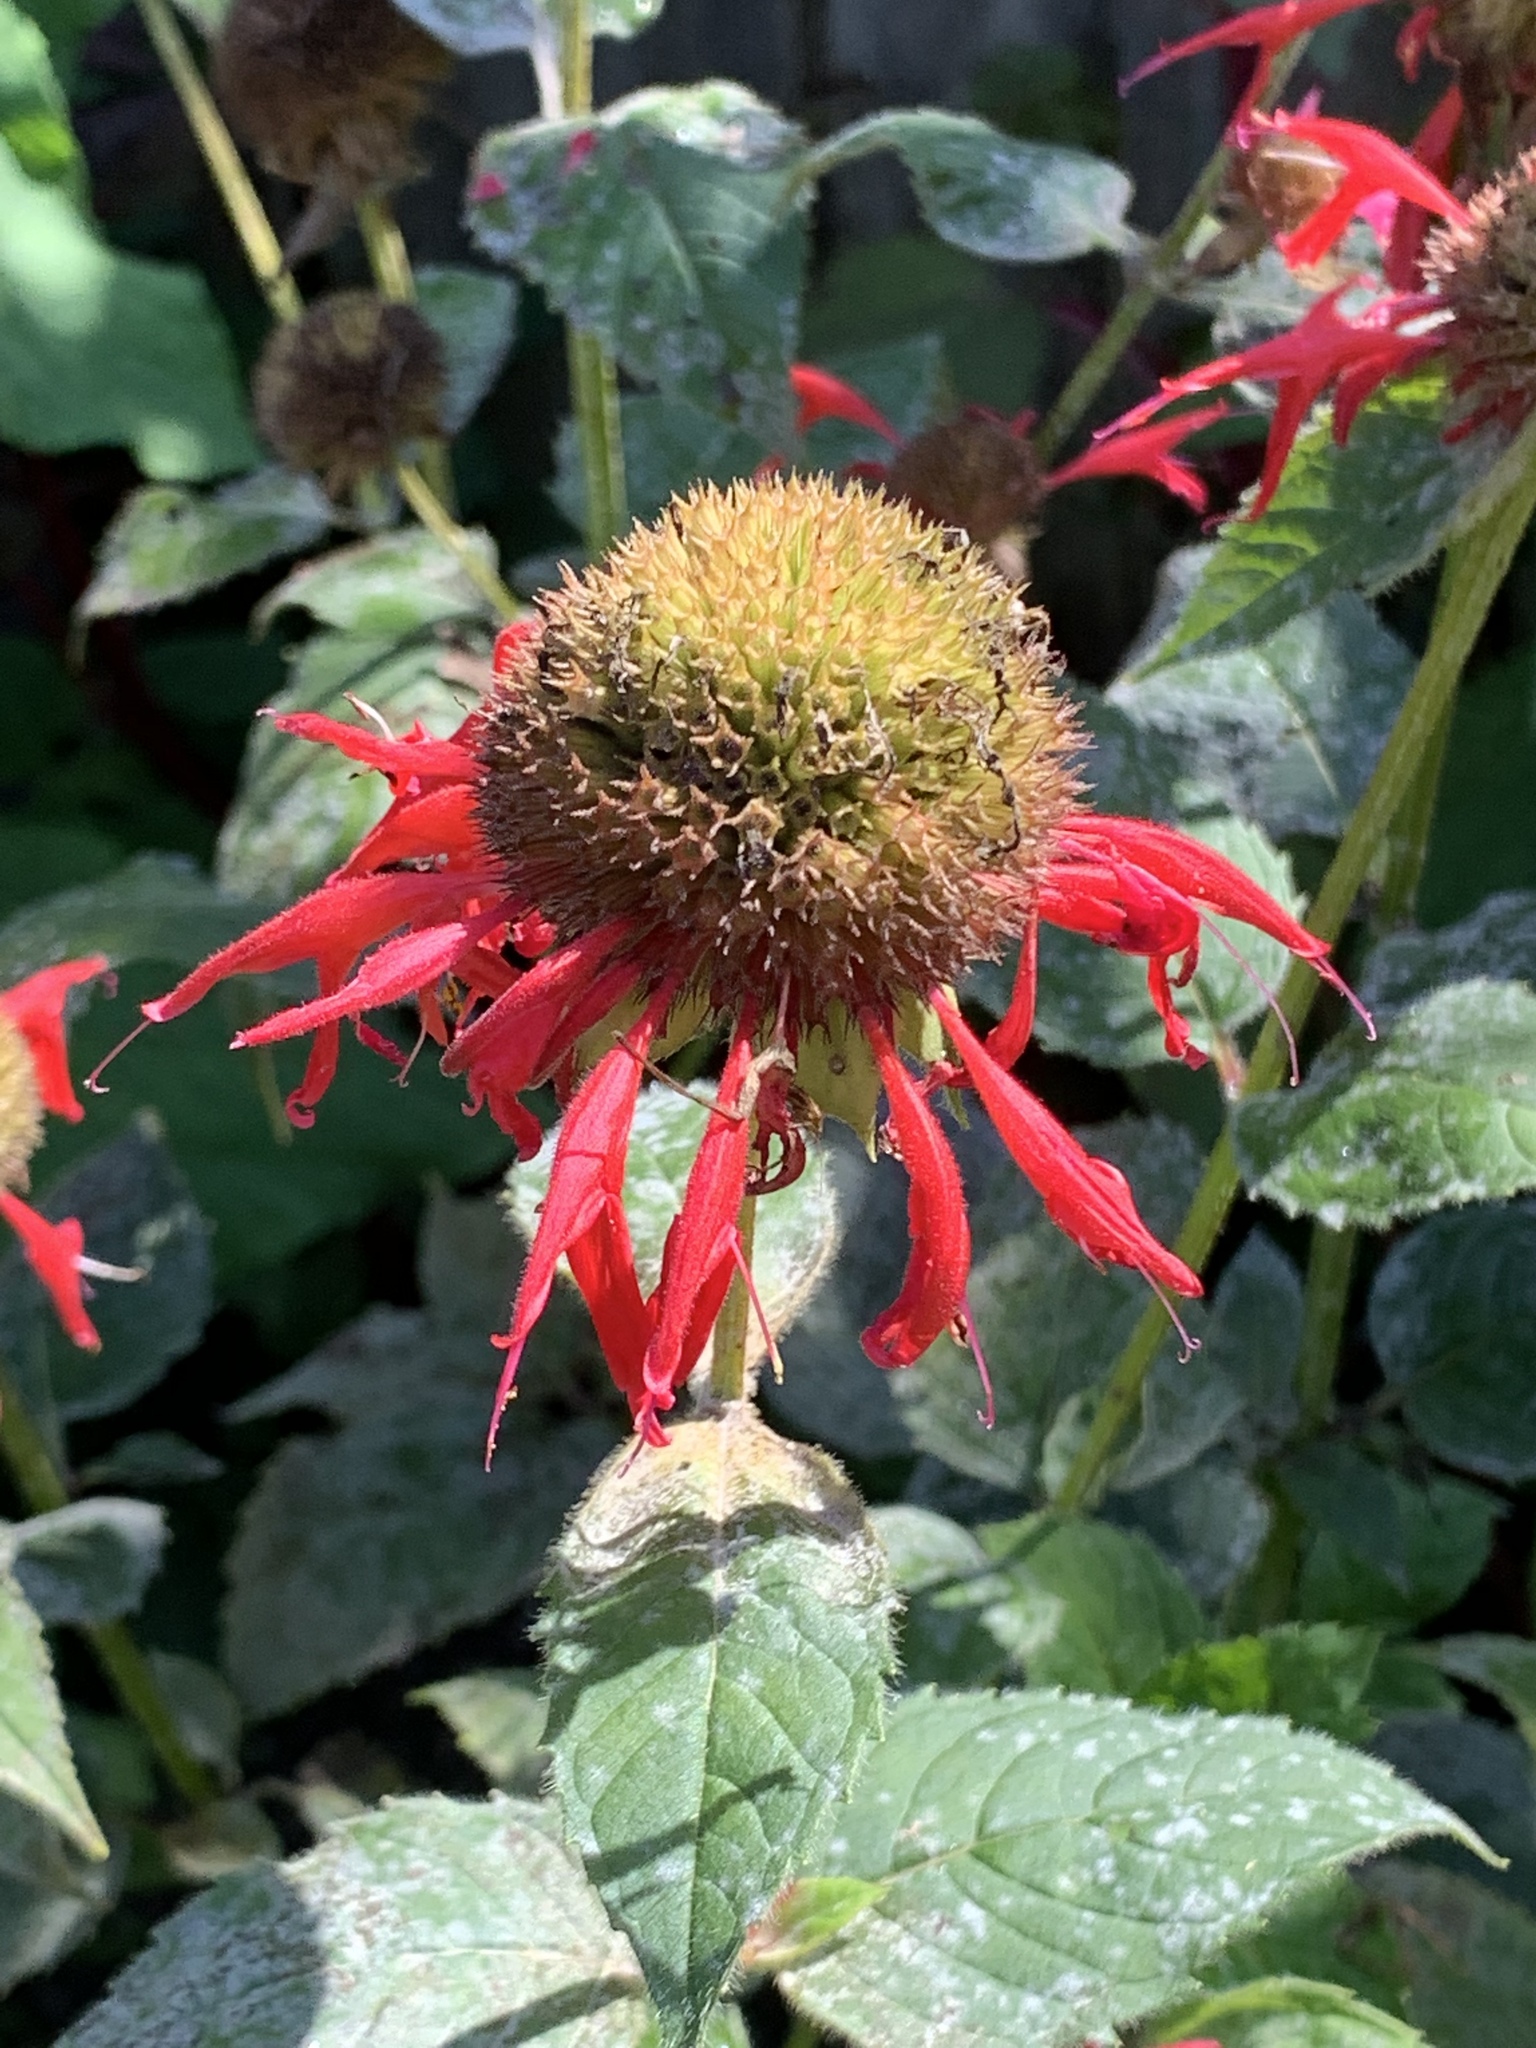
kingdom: Plantae
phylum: Tracheophyta
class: Magnoliopsida
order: Lamiales
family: Lamiaceae
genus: Monarda
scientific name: Monarda didyma
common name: Beebalm
